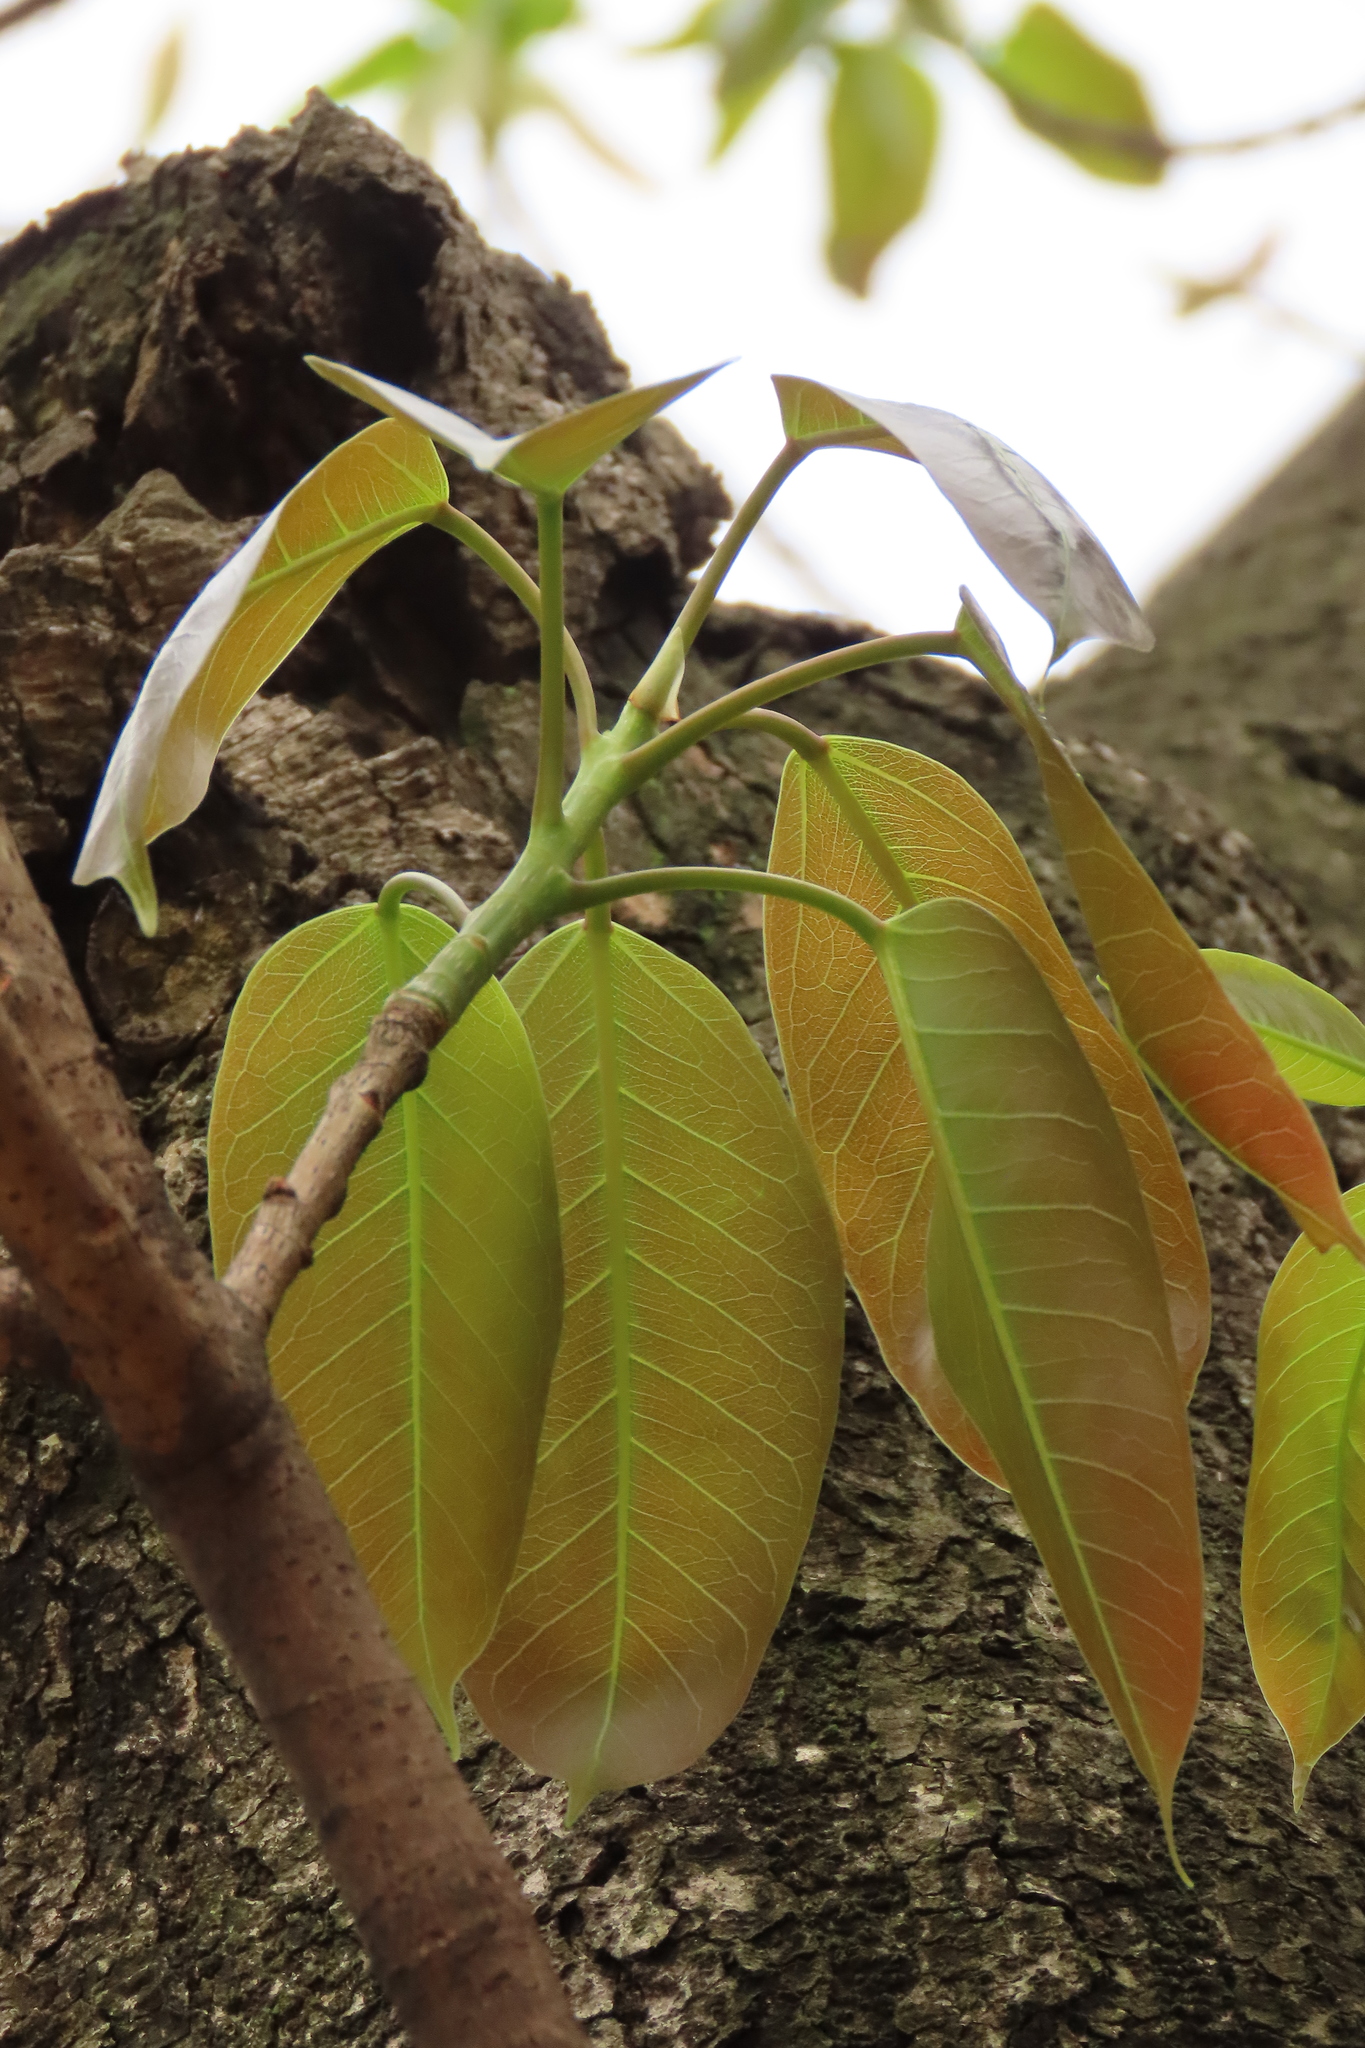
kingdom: Plantae
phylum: Tracheophyta
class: Magnoliopsida
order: Rosales
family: Moraceae
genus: Ficus
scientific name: Ficus caulocarpa
